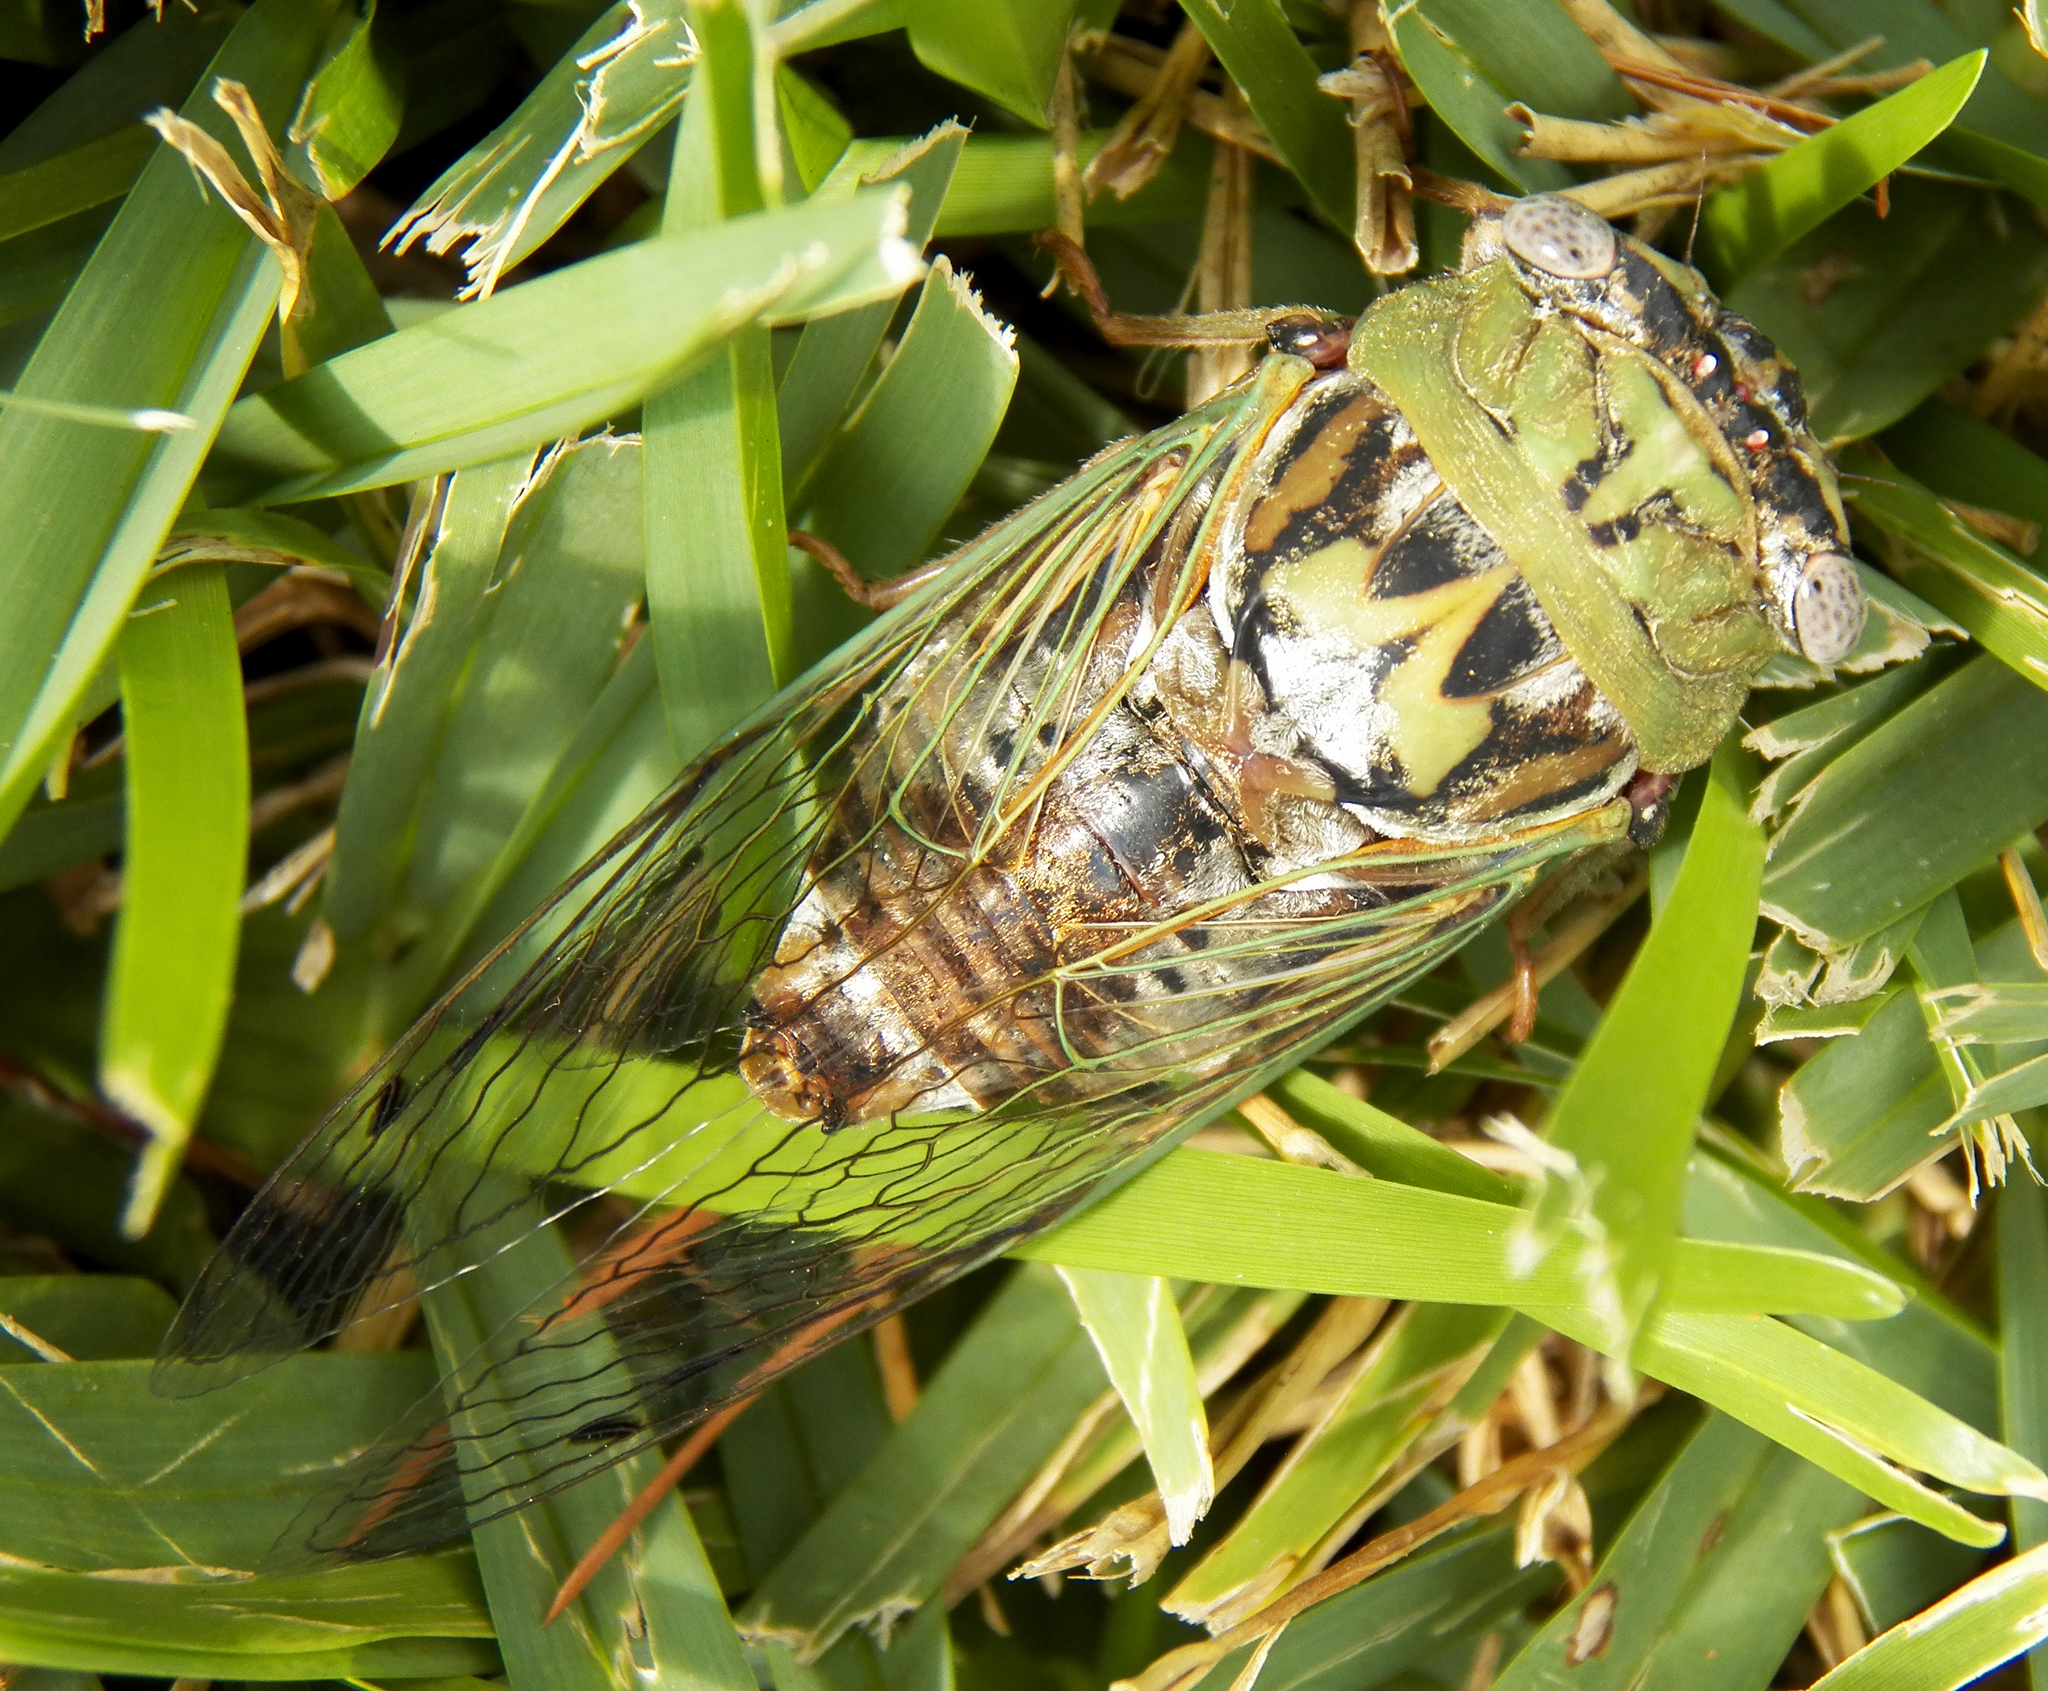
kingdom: Animalia
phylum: Arthropoda
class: Insecta
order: Hemiptera
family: Cicadidae
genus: Megatibicen
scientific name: Megatibicen resh
